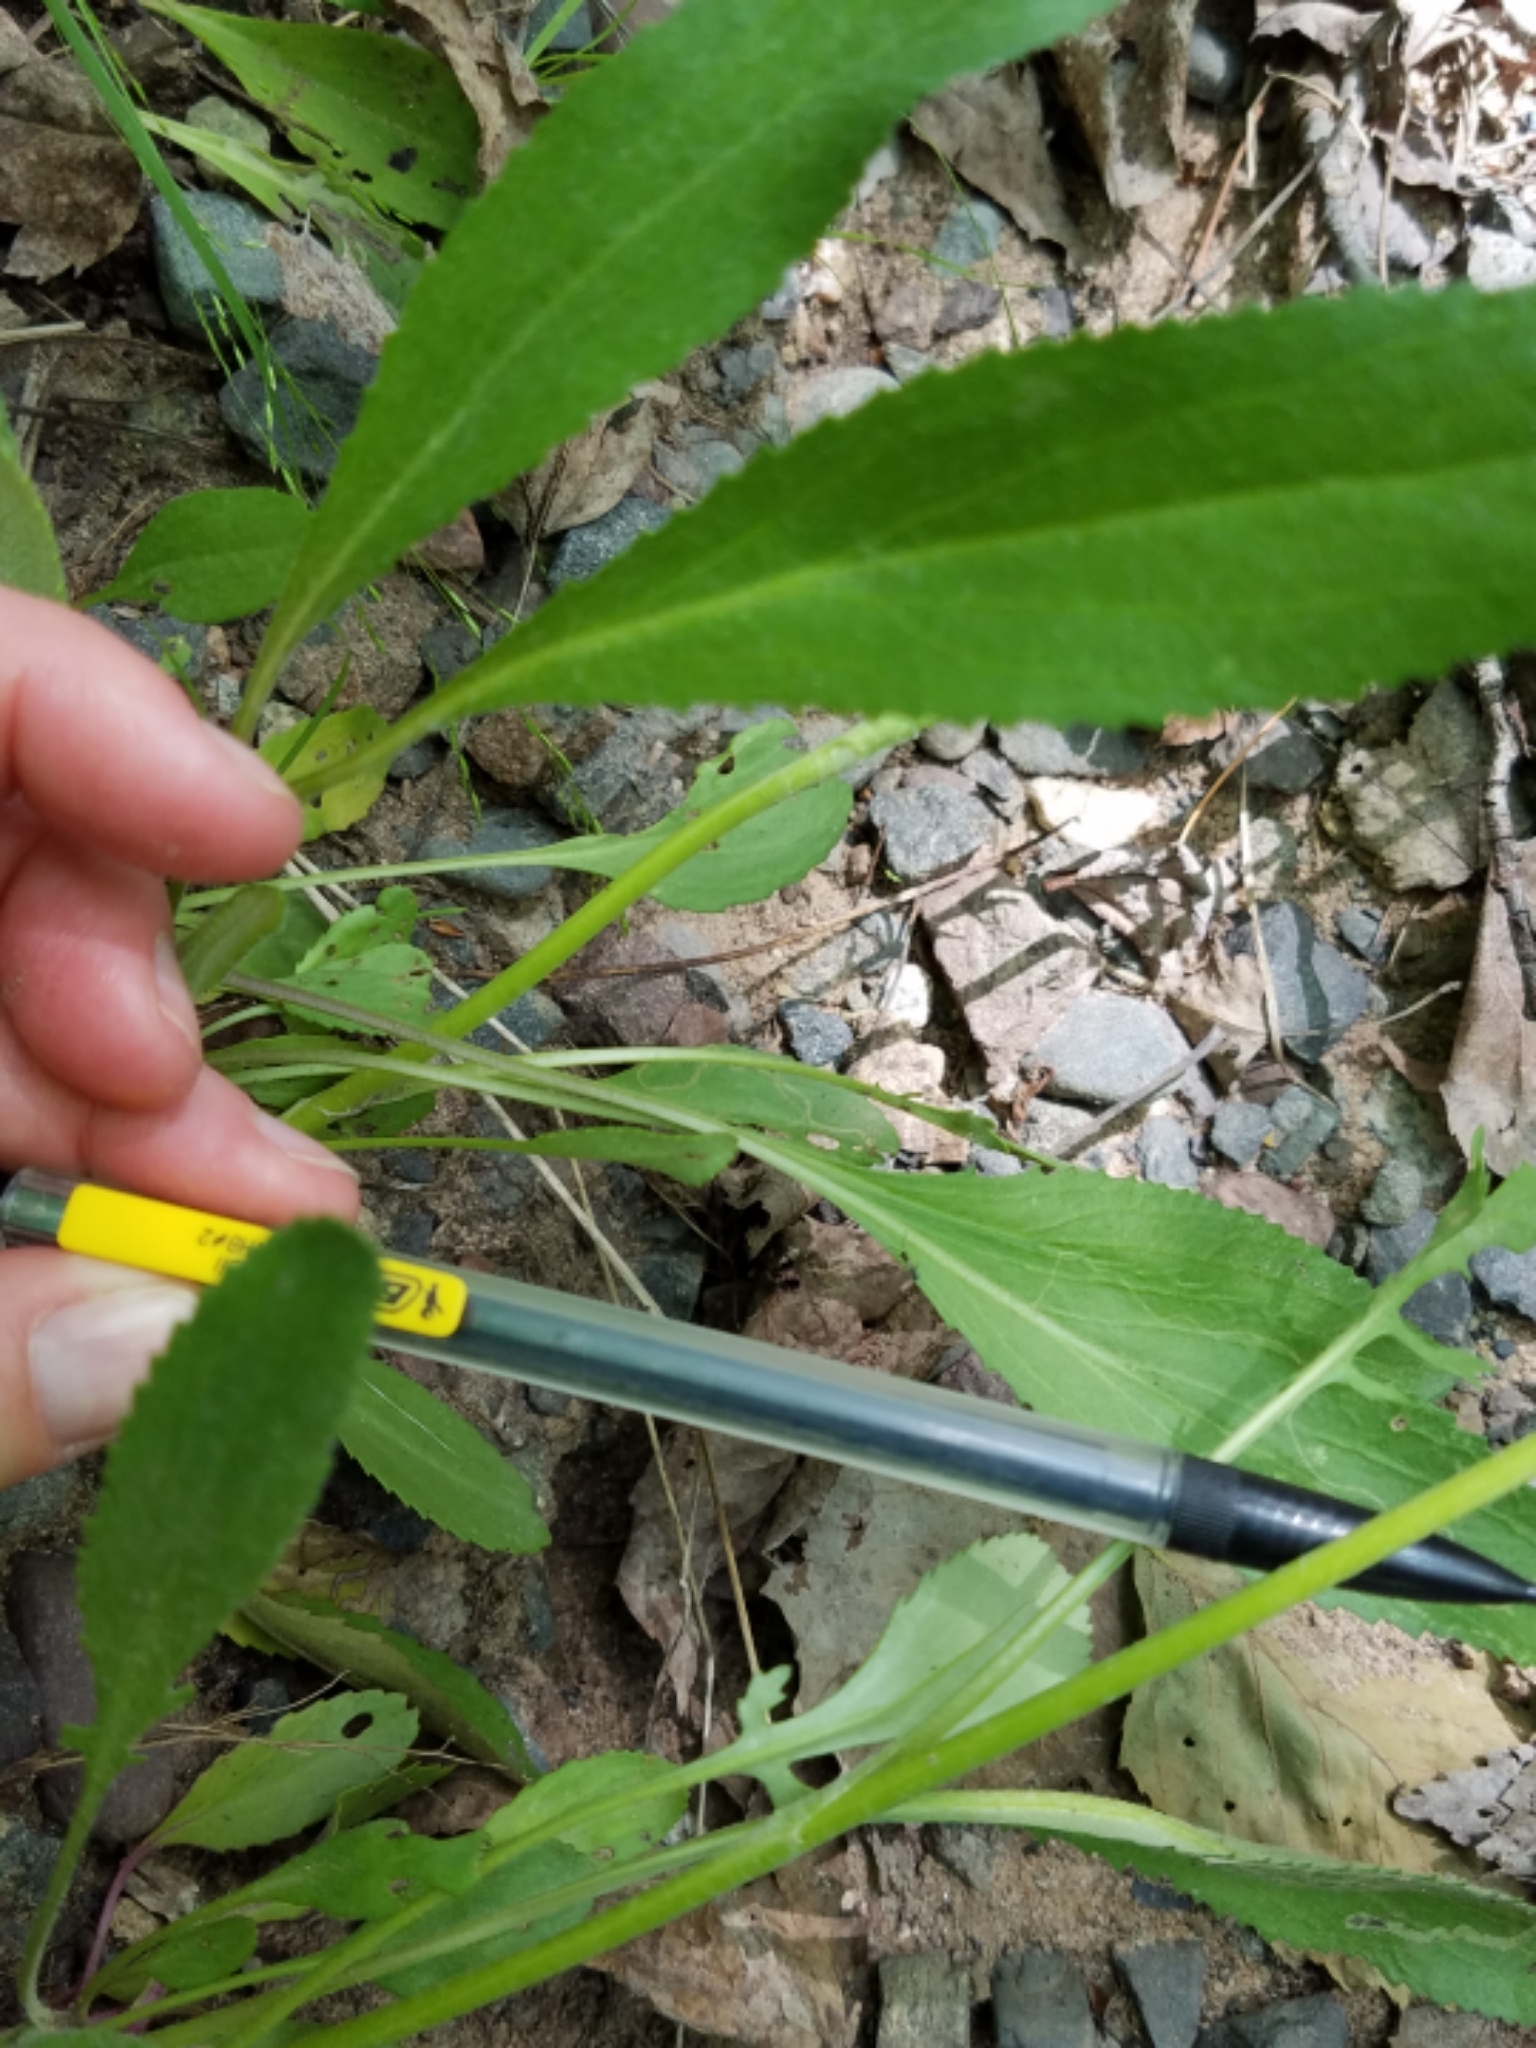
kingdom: Plantae
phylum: Tracheophyta
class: Magnoliopsida
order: Asterales
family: Asteraceae
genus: Packera
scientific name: Packera paupercula
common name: Balsam groundsel
